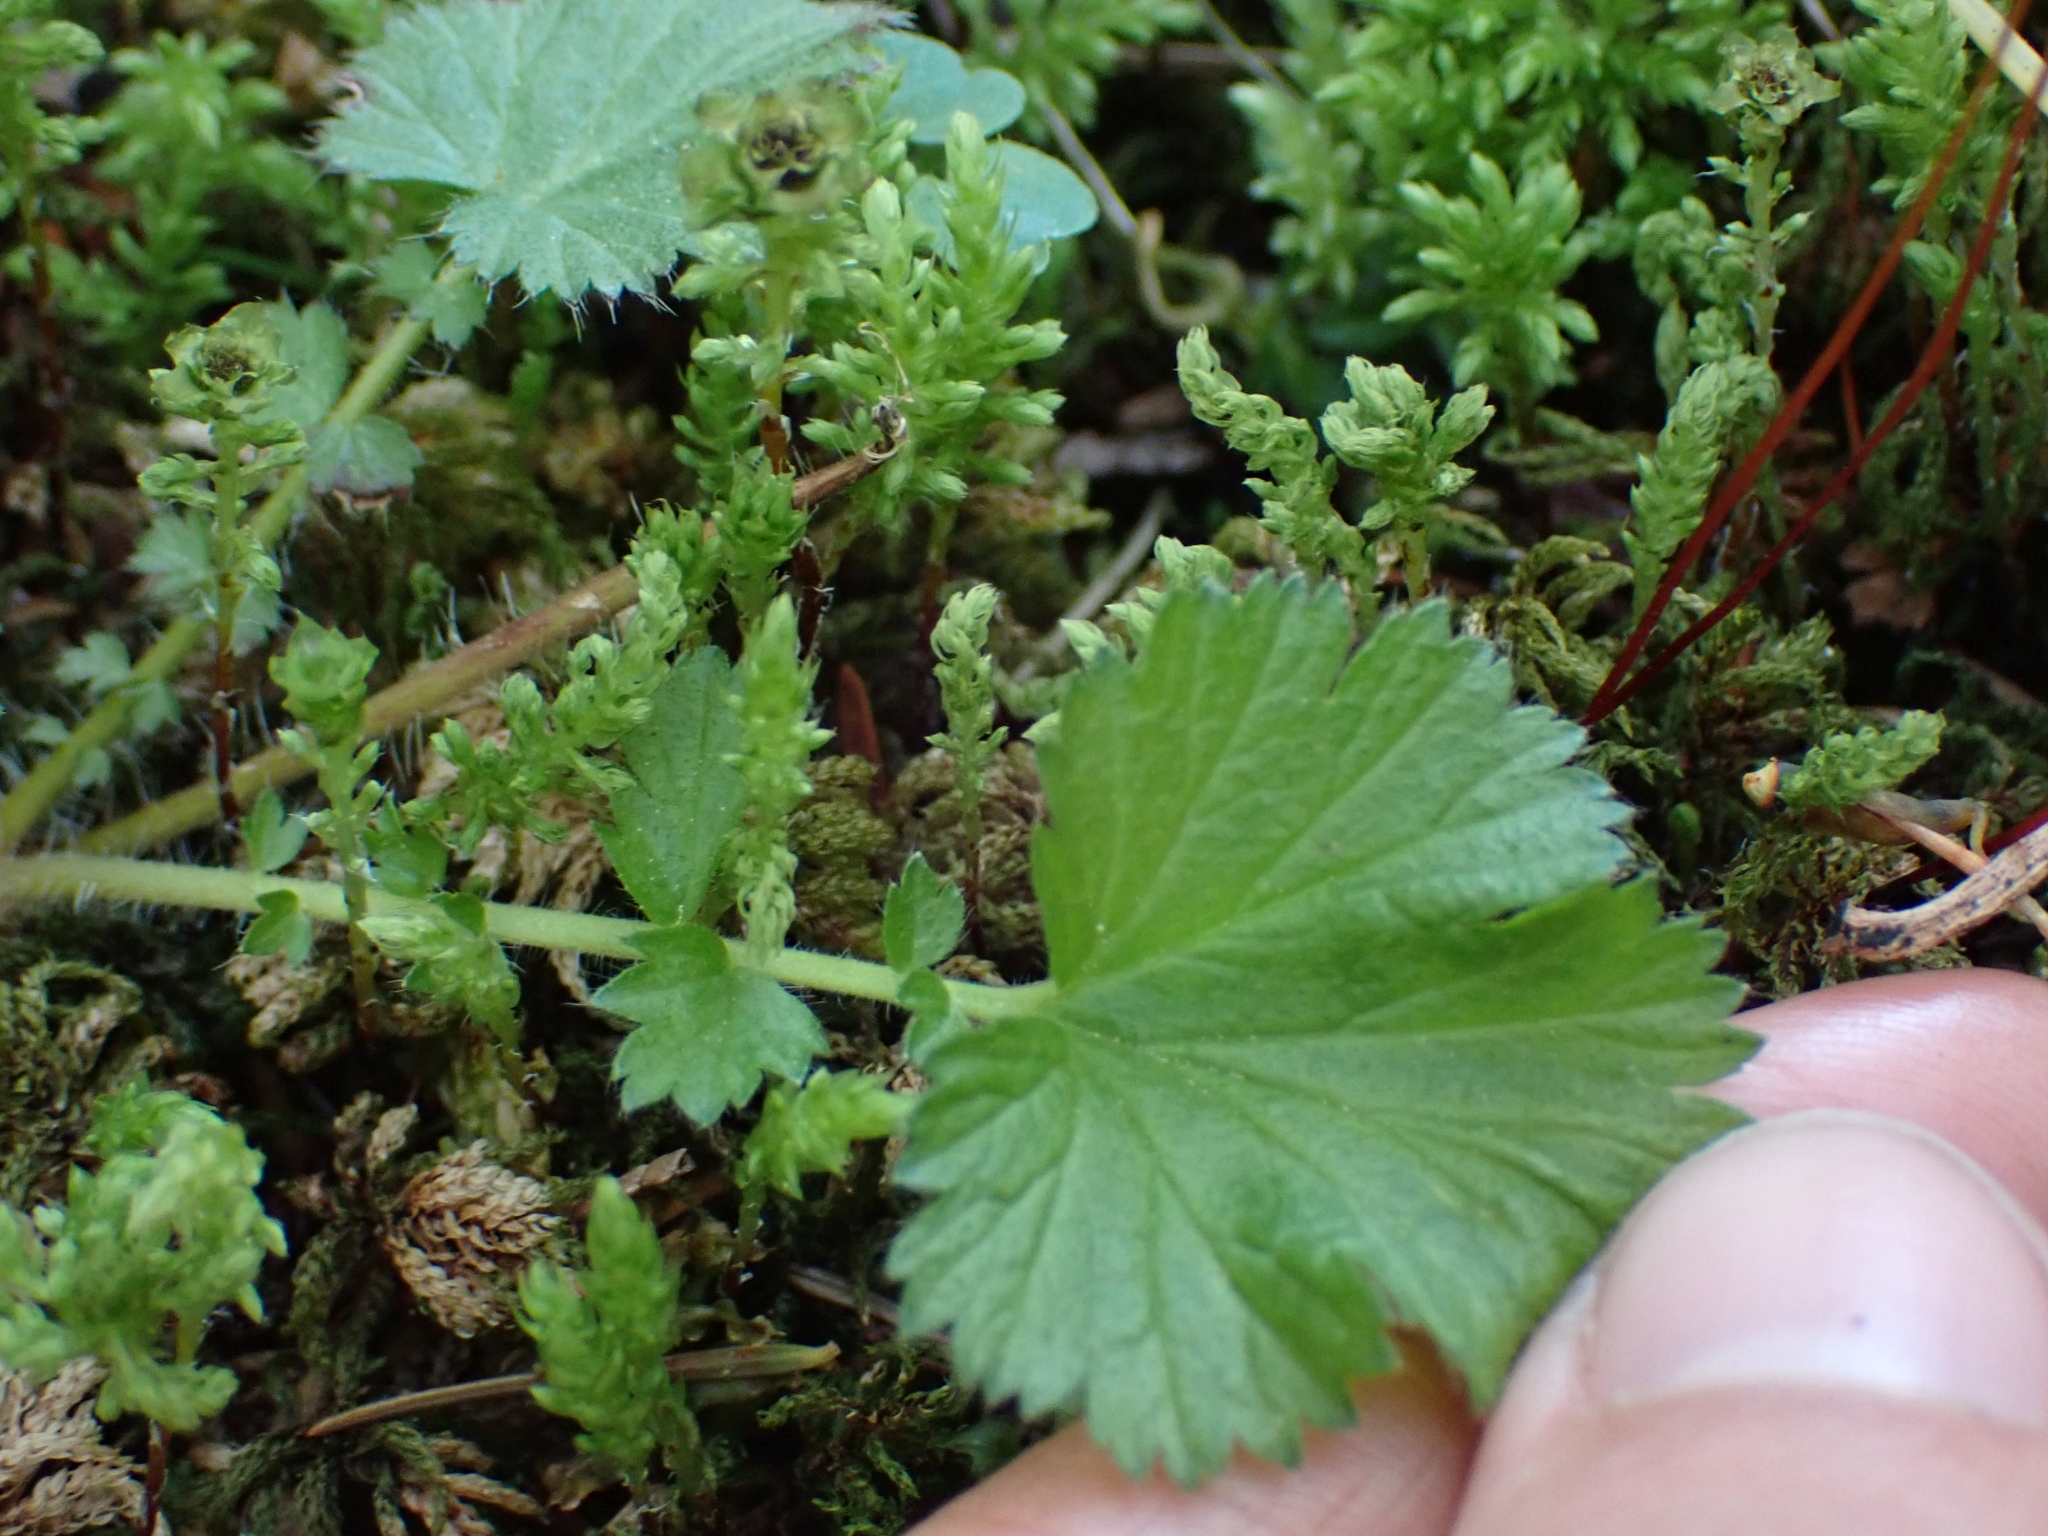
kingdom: Plantae
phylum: Tracheophyta
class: Magnoliopsida
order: Rosales
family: Rosaceae
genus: Geum
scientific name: Geum macrophyllum
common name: Large-leaved avens
